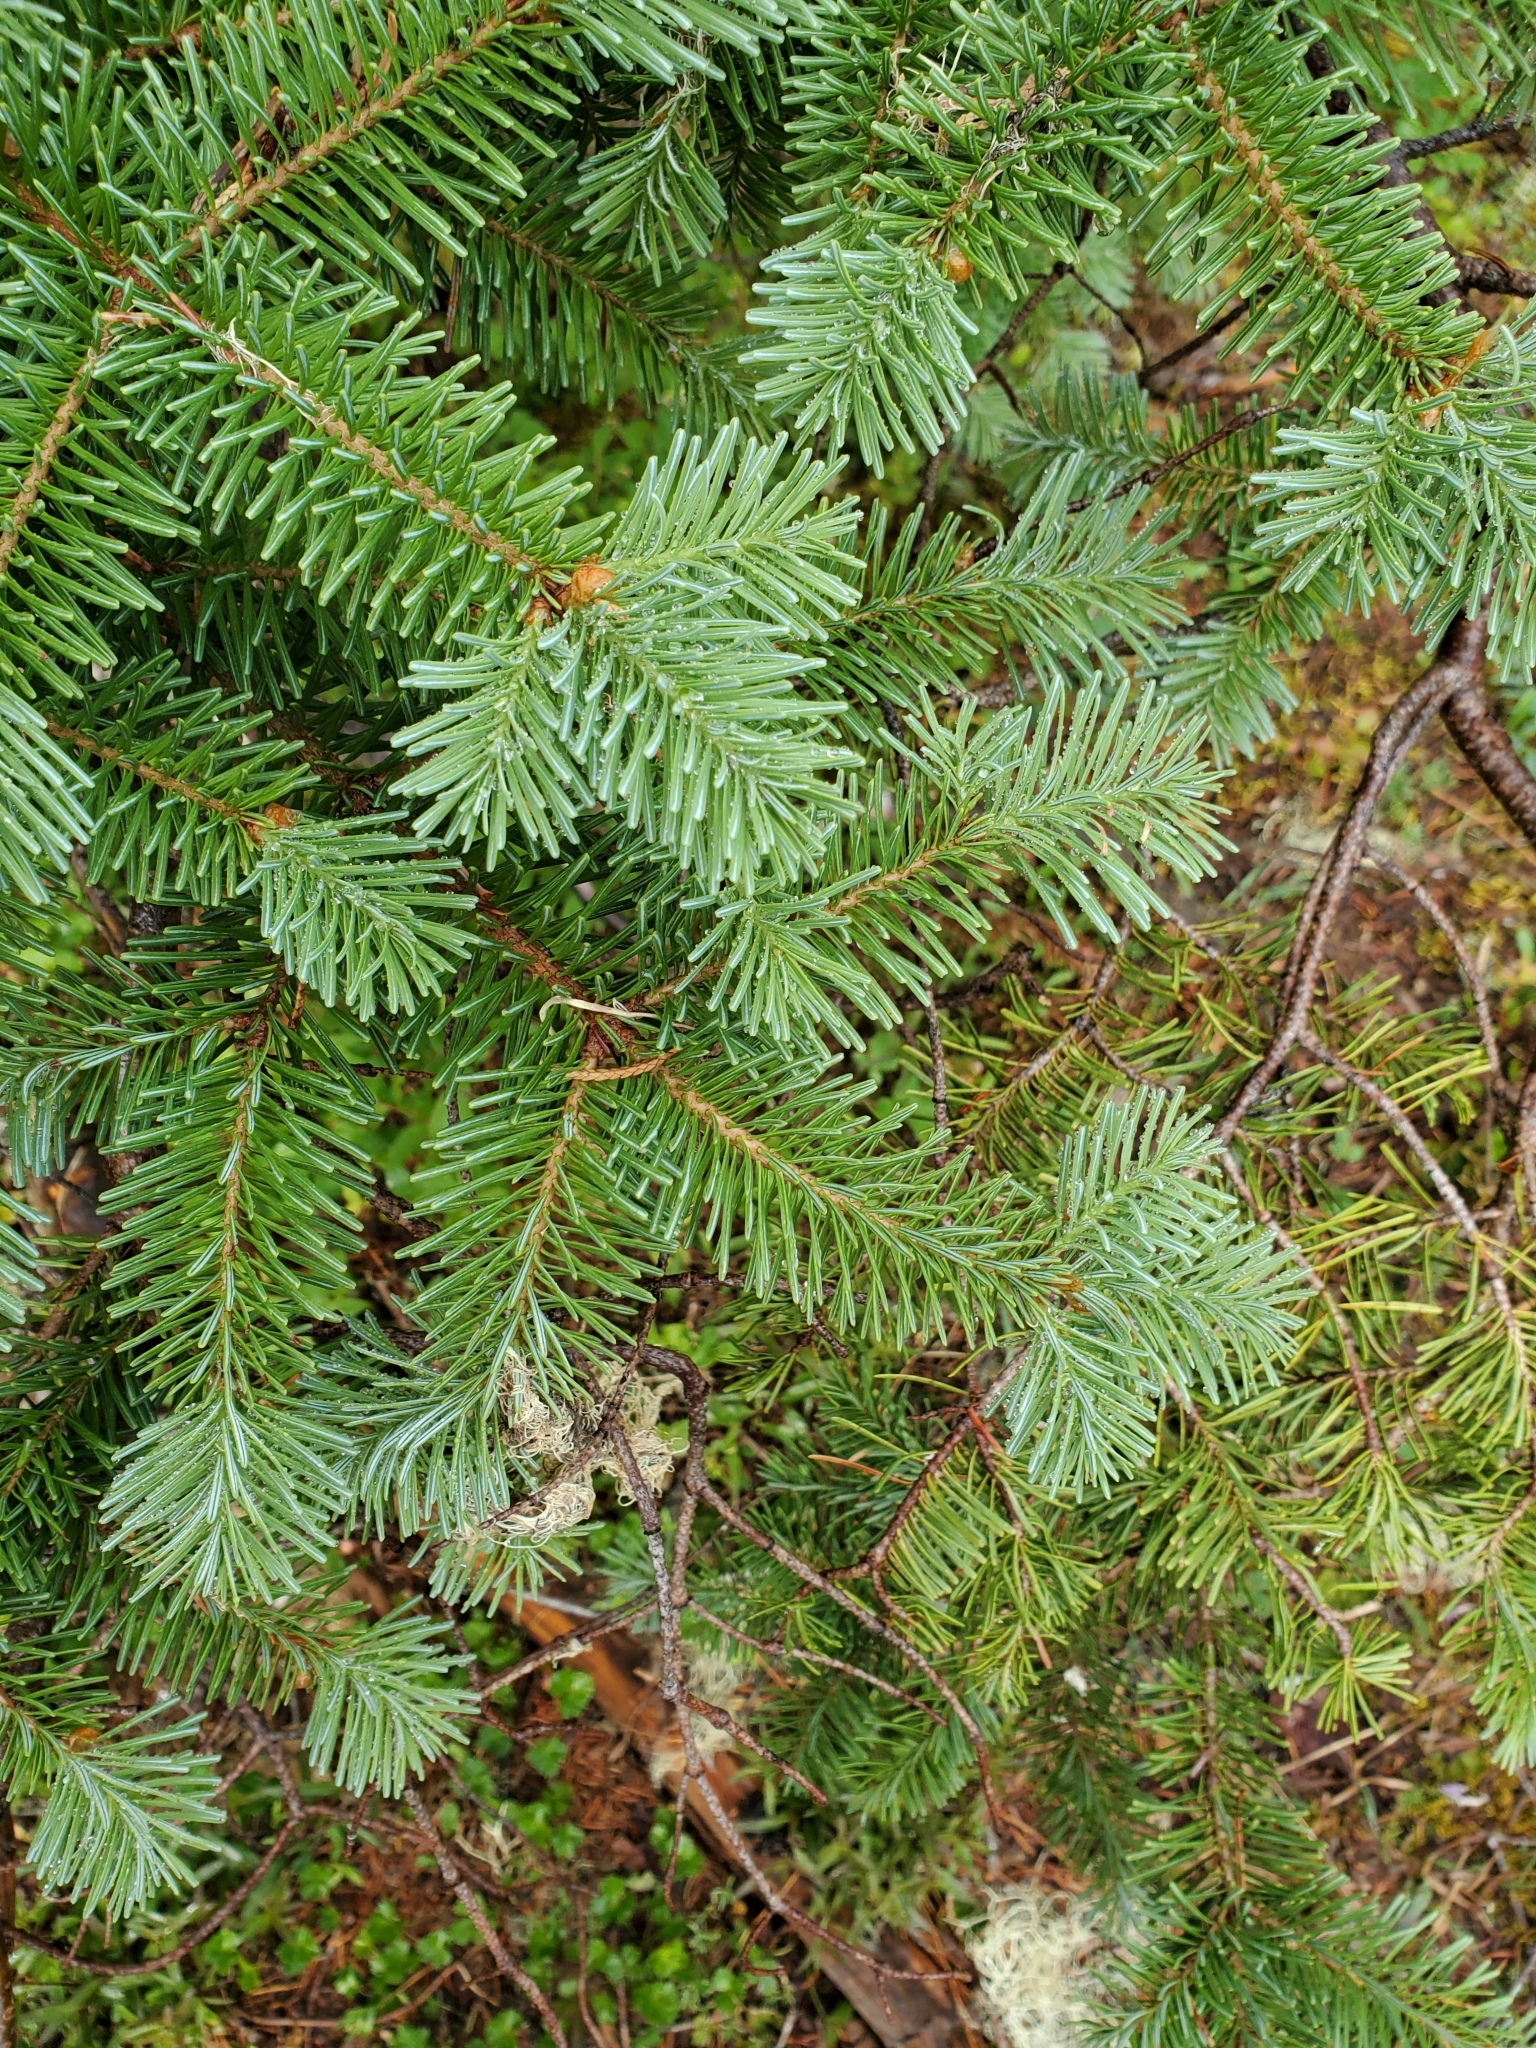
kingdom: Plantae
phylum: Tracheophyta
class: Pinopsida
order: Pinales
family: Pinaceae
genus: Abies
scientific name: Abies lasiocarpa
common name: Subalpine fir
